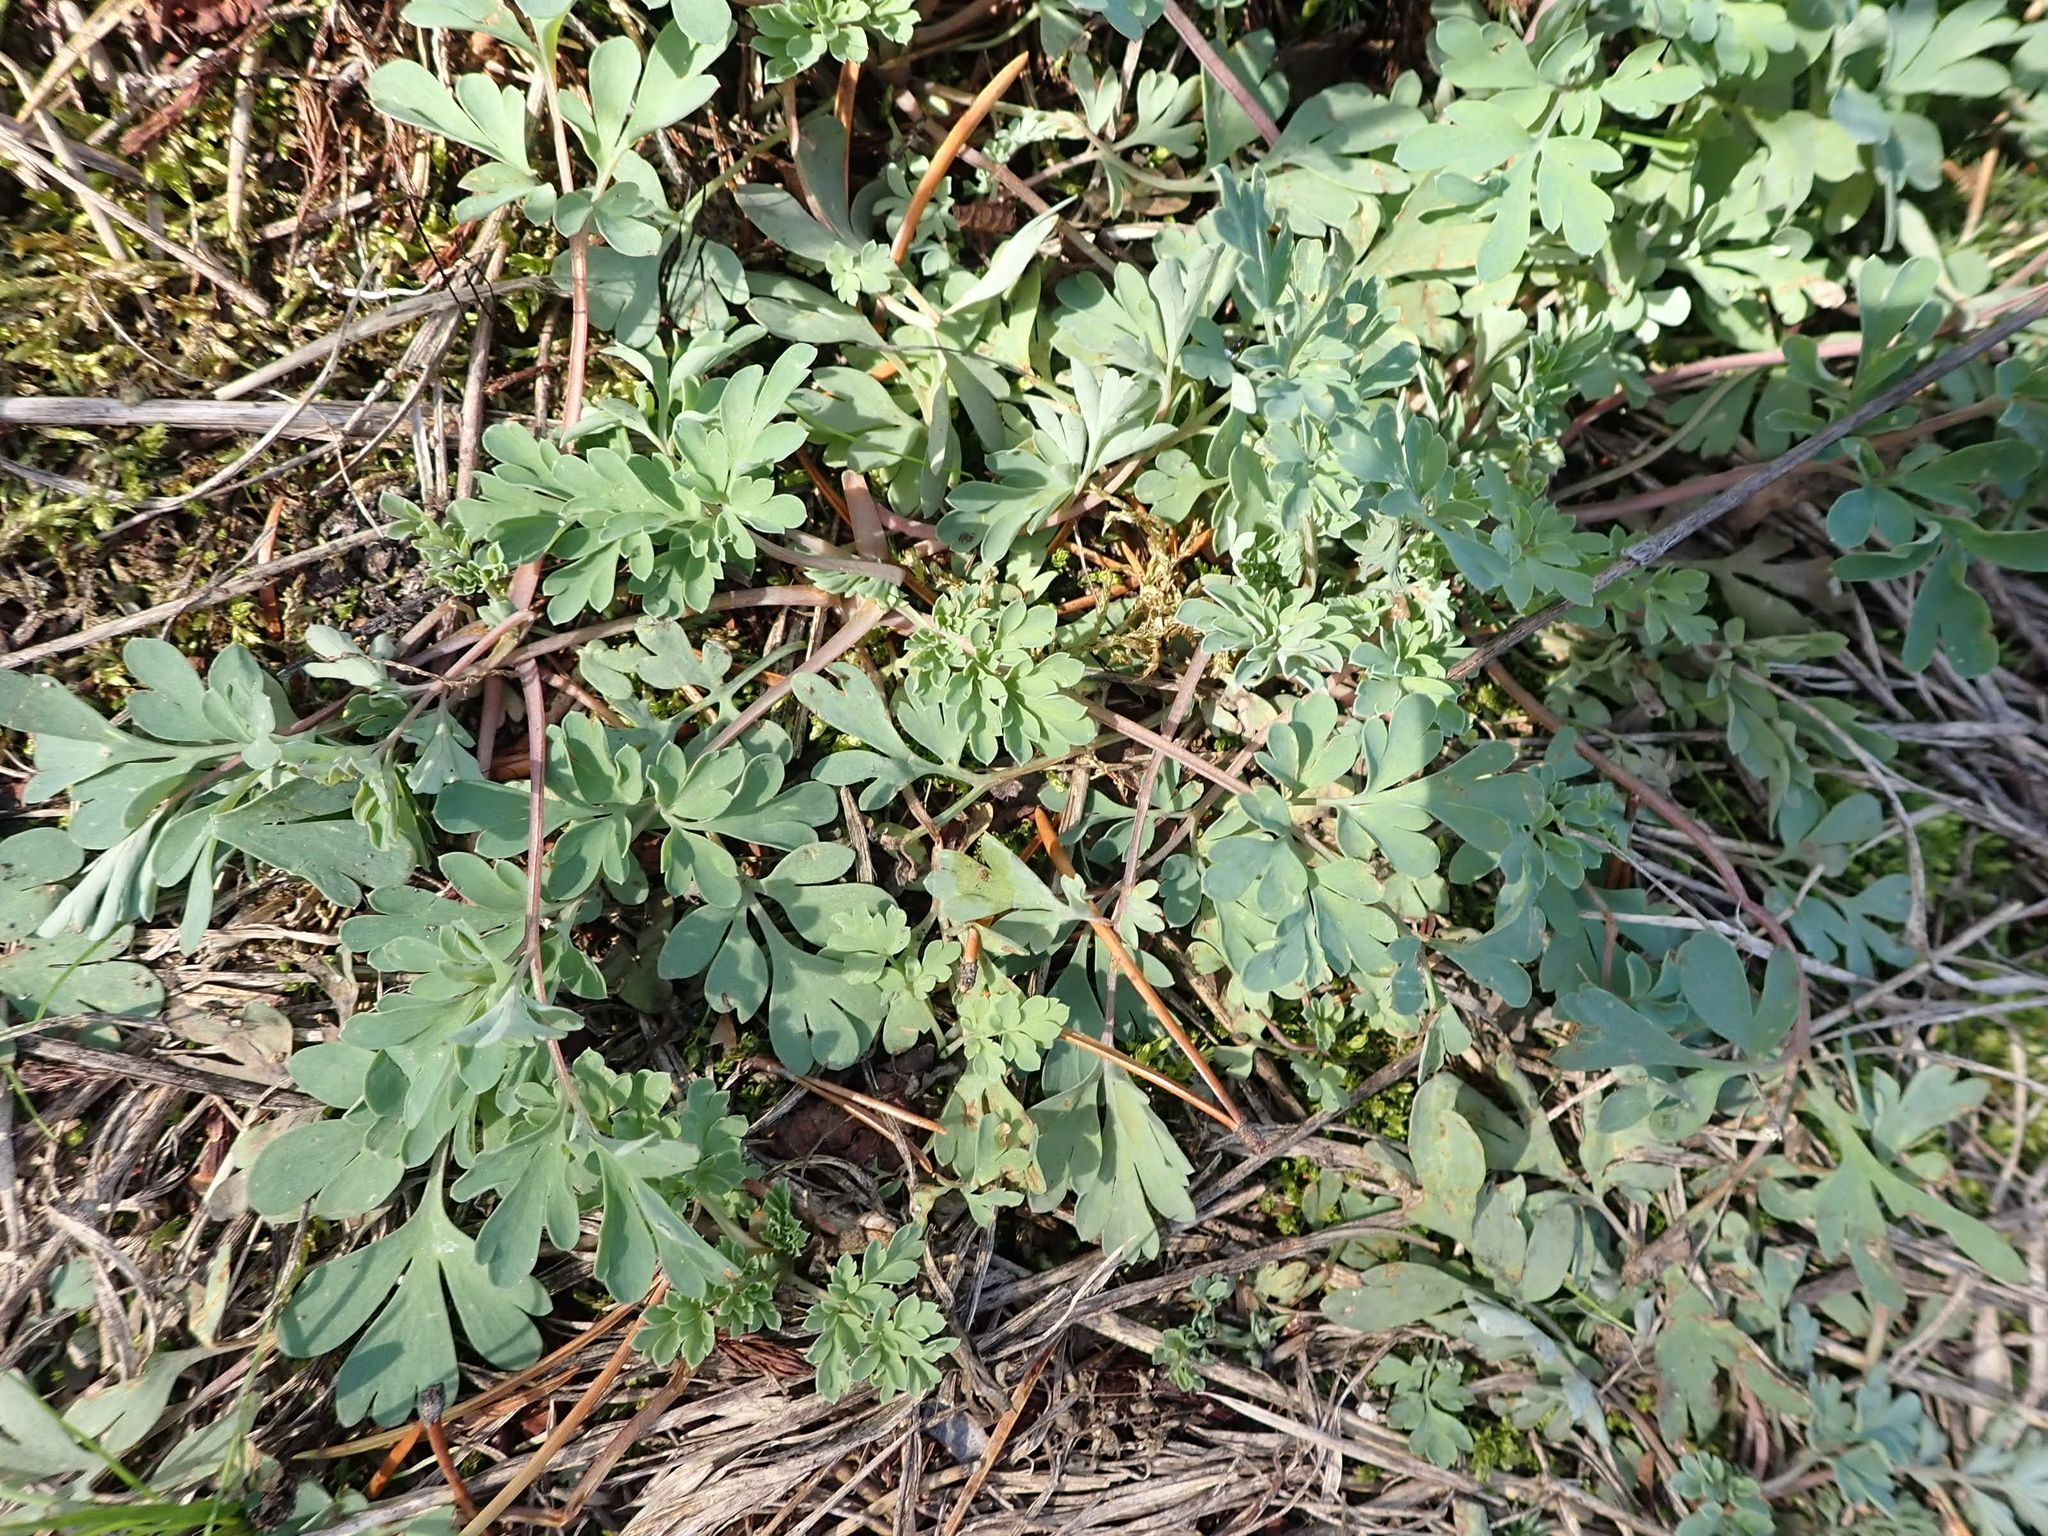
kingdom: Plantae
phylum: Tracheophyta
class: Magnoliopsida
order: Ranunculales
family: Papaveraceae
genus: Capnoides
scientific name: Capnoides sempervirens
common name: Rock harlequin
